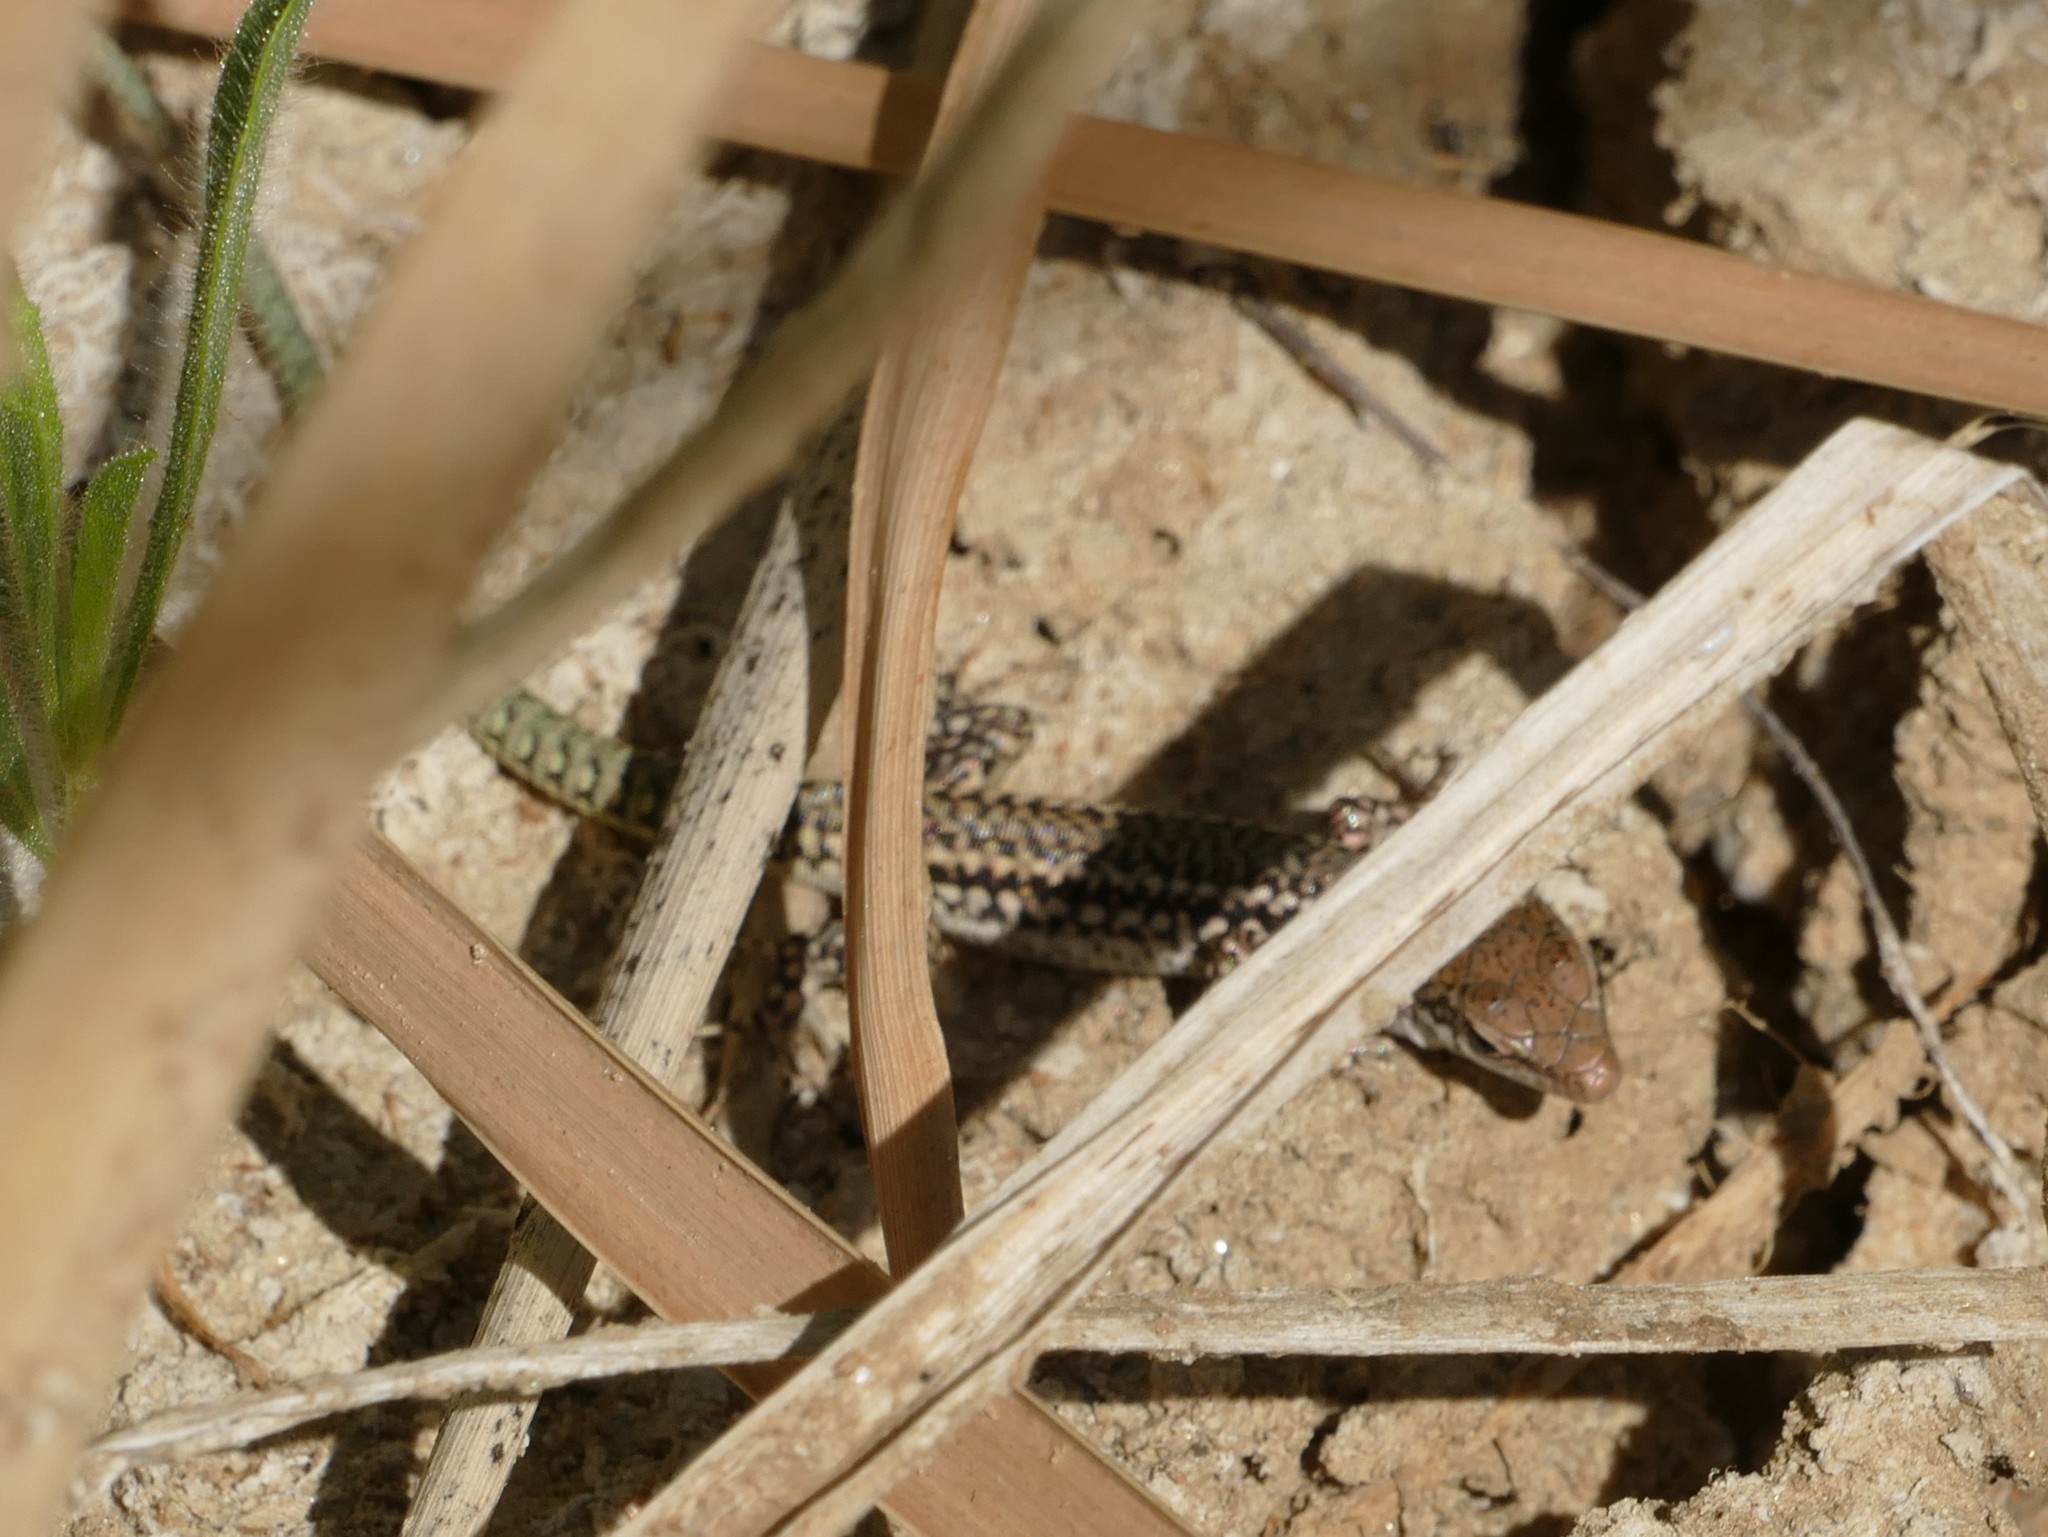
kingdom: Animalia
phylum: Chordata
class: Squamata
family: Lacertidae
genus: Podarcis
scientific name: Podarcis virescens
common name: Geniez’s wall lizard
